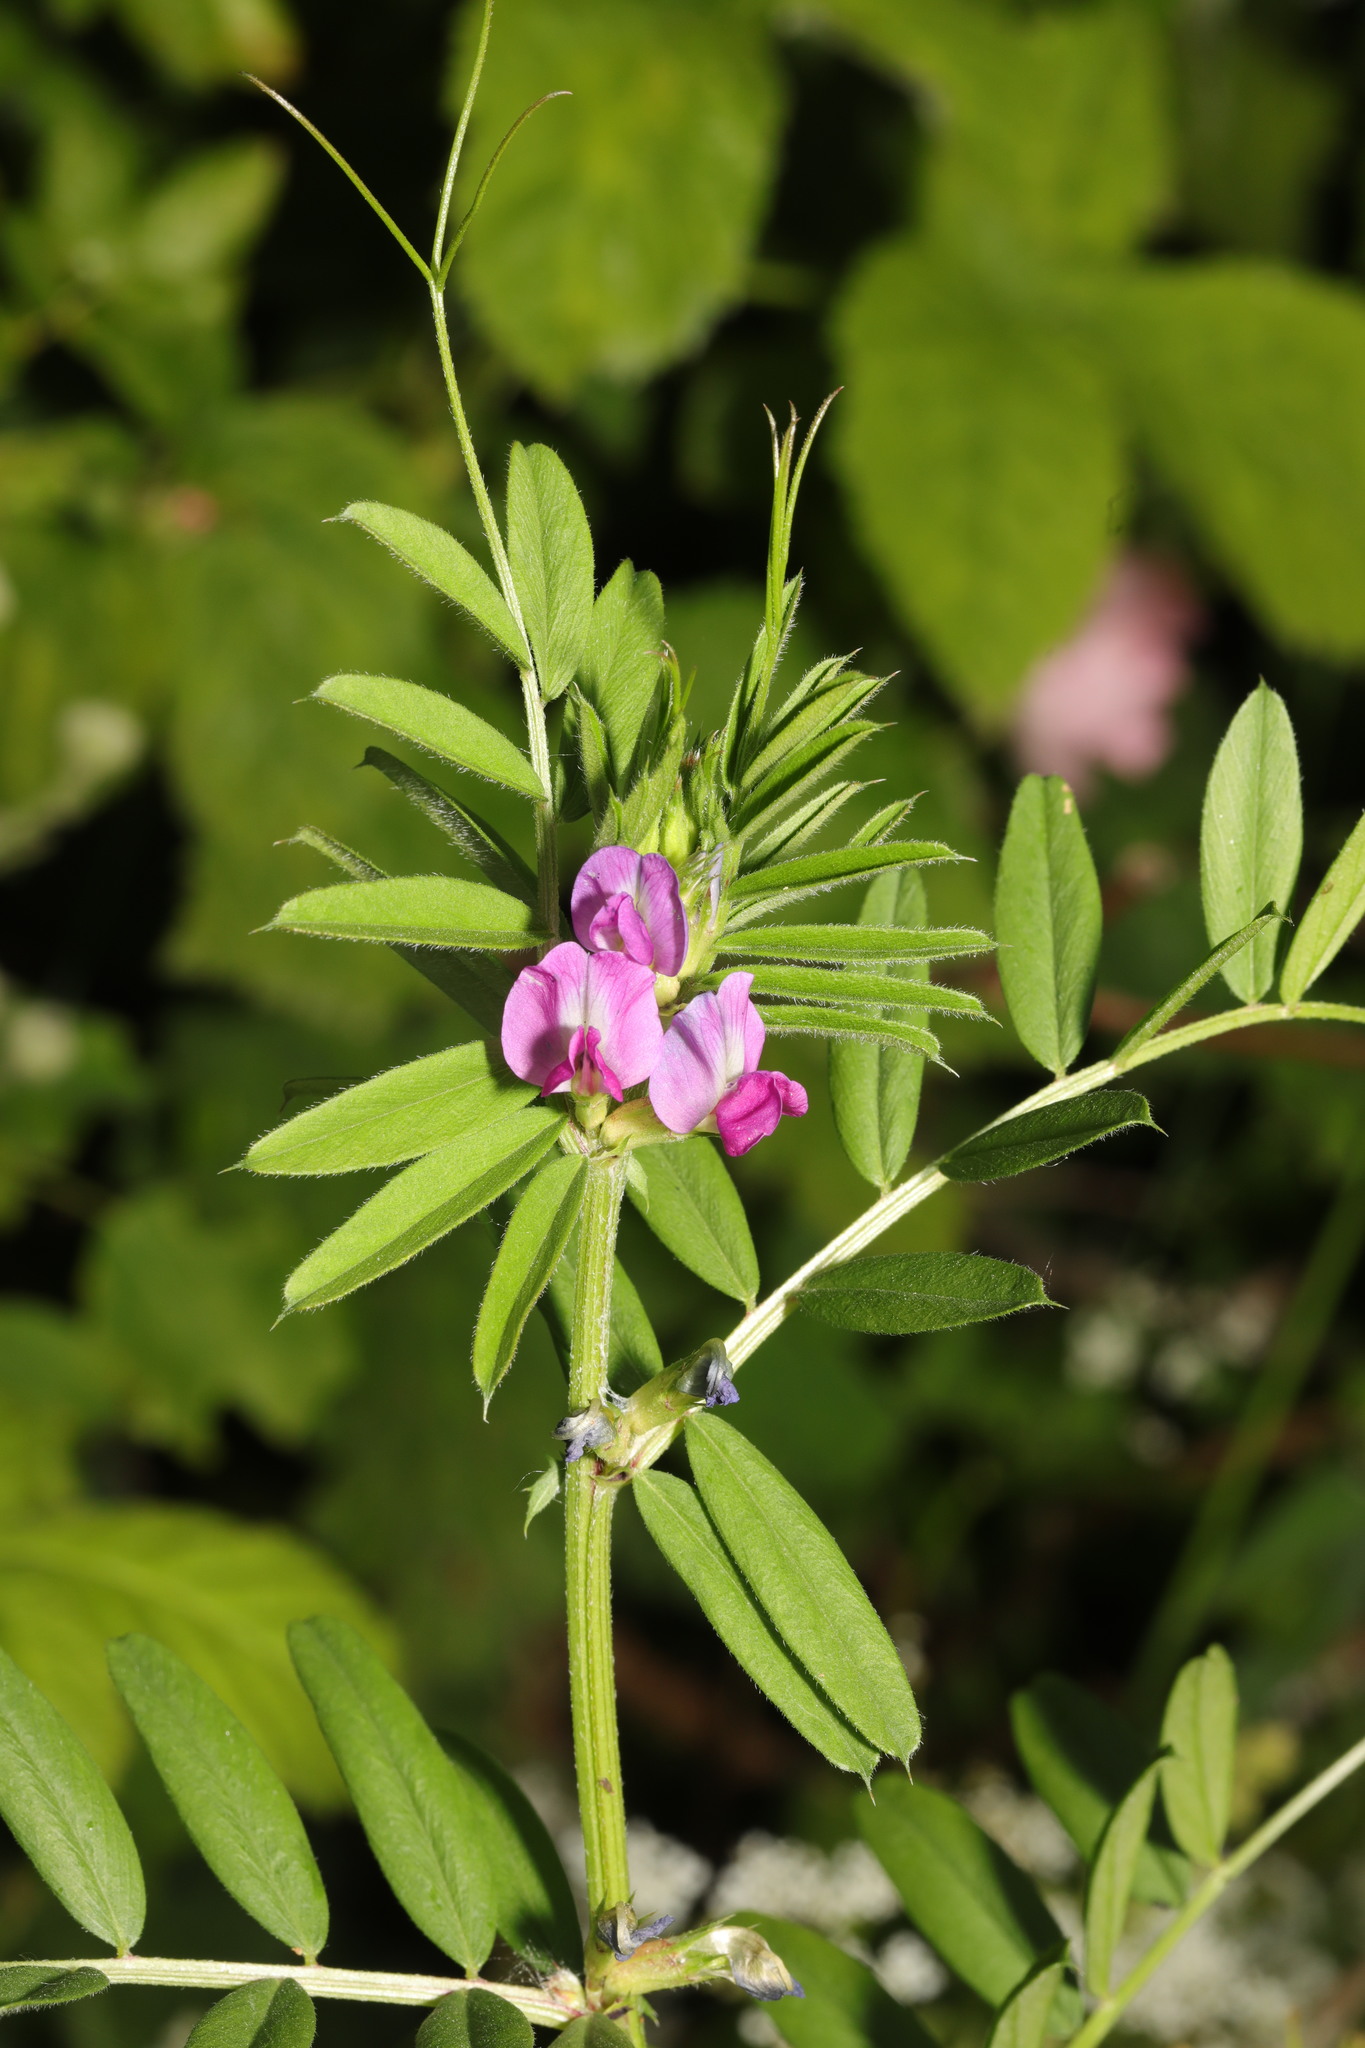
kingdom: Plantae
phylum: Tracheophyta
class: Magnoliopsida
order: Fabales
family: Fabaceae
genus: Vicia
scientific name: Vicia sativa
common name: Garden vetch
